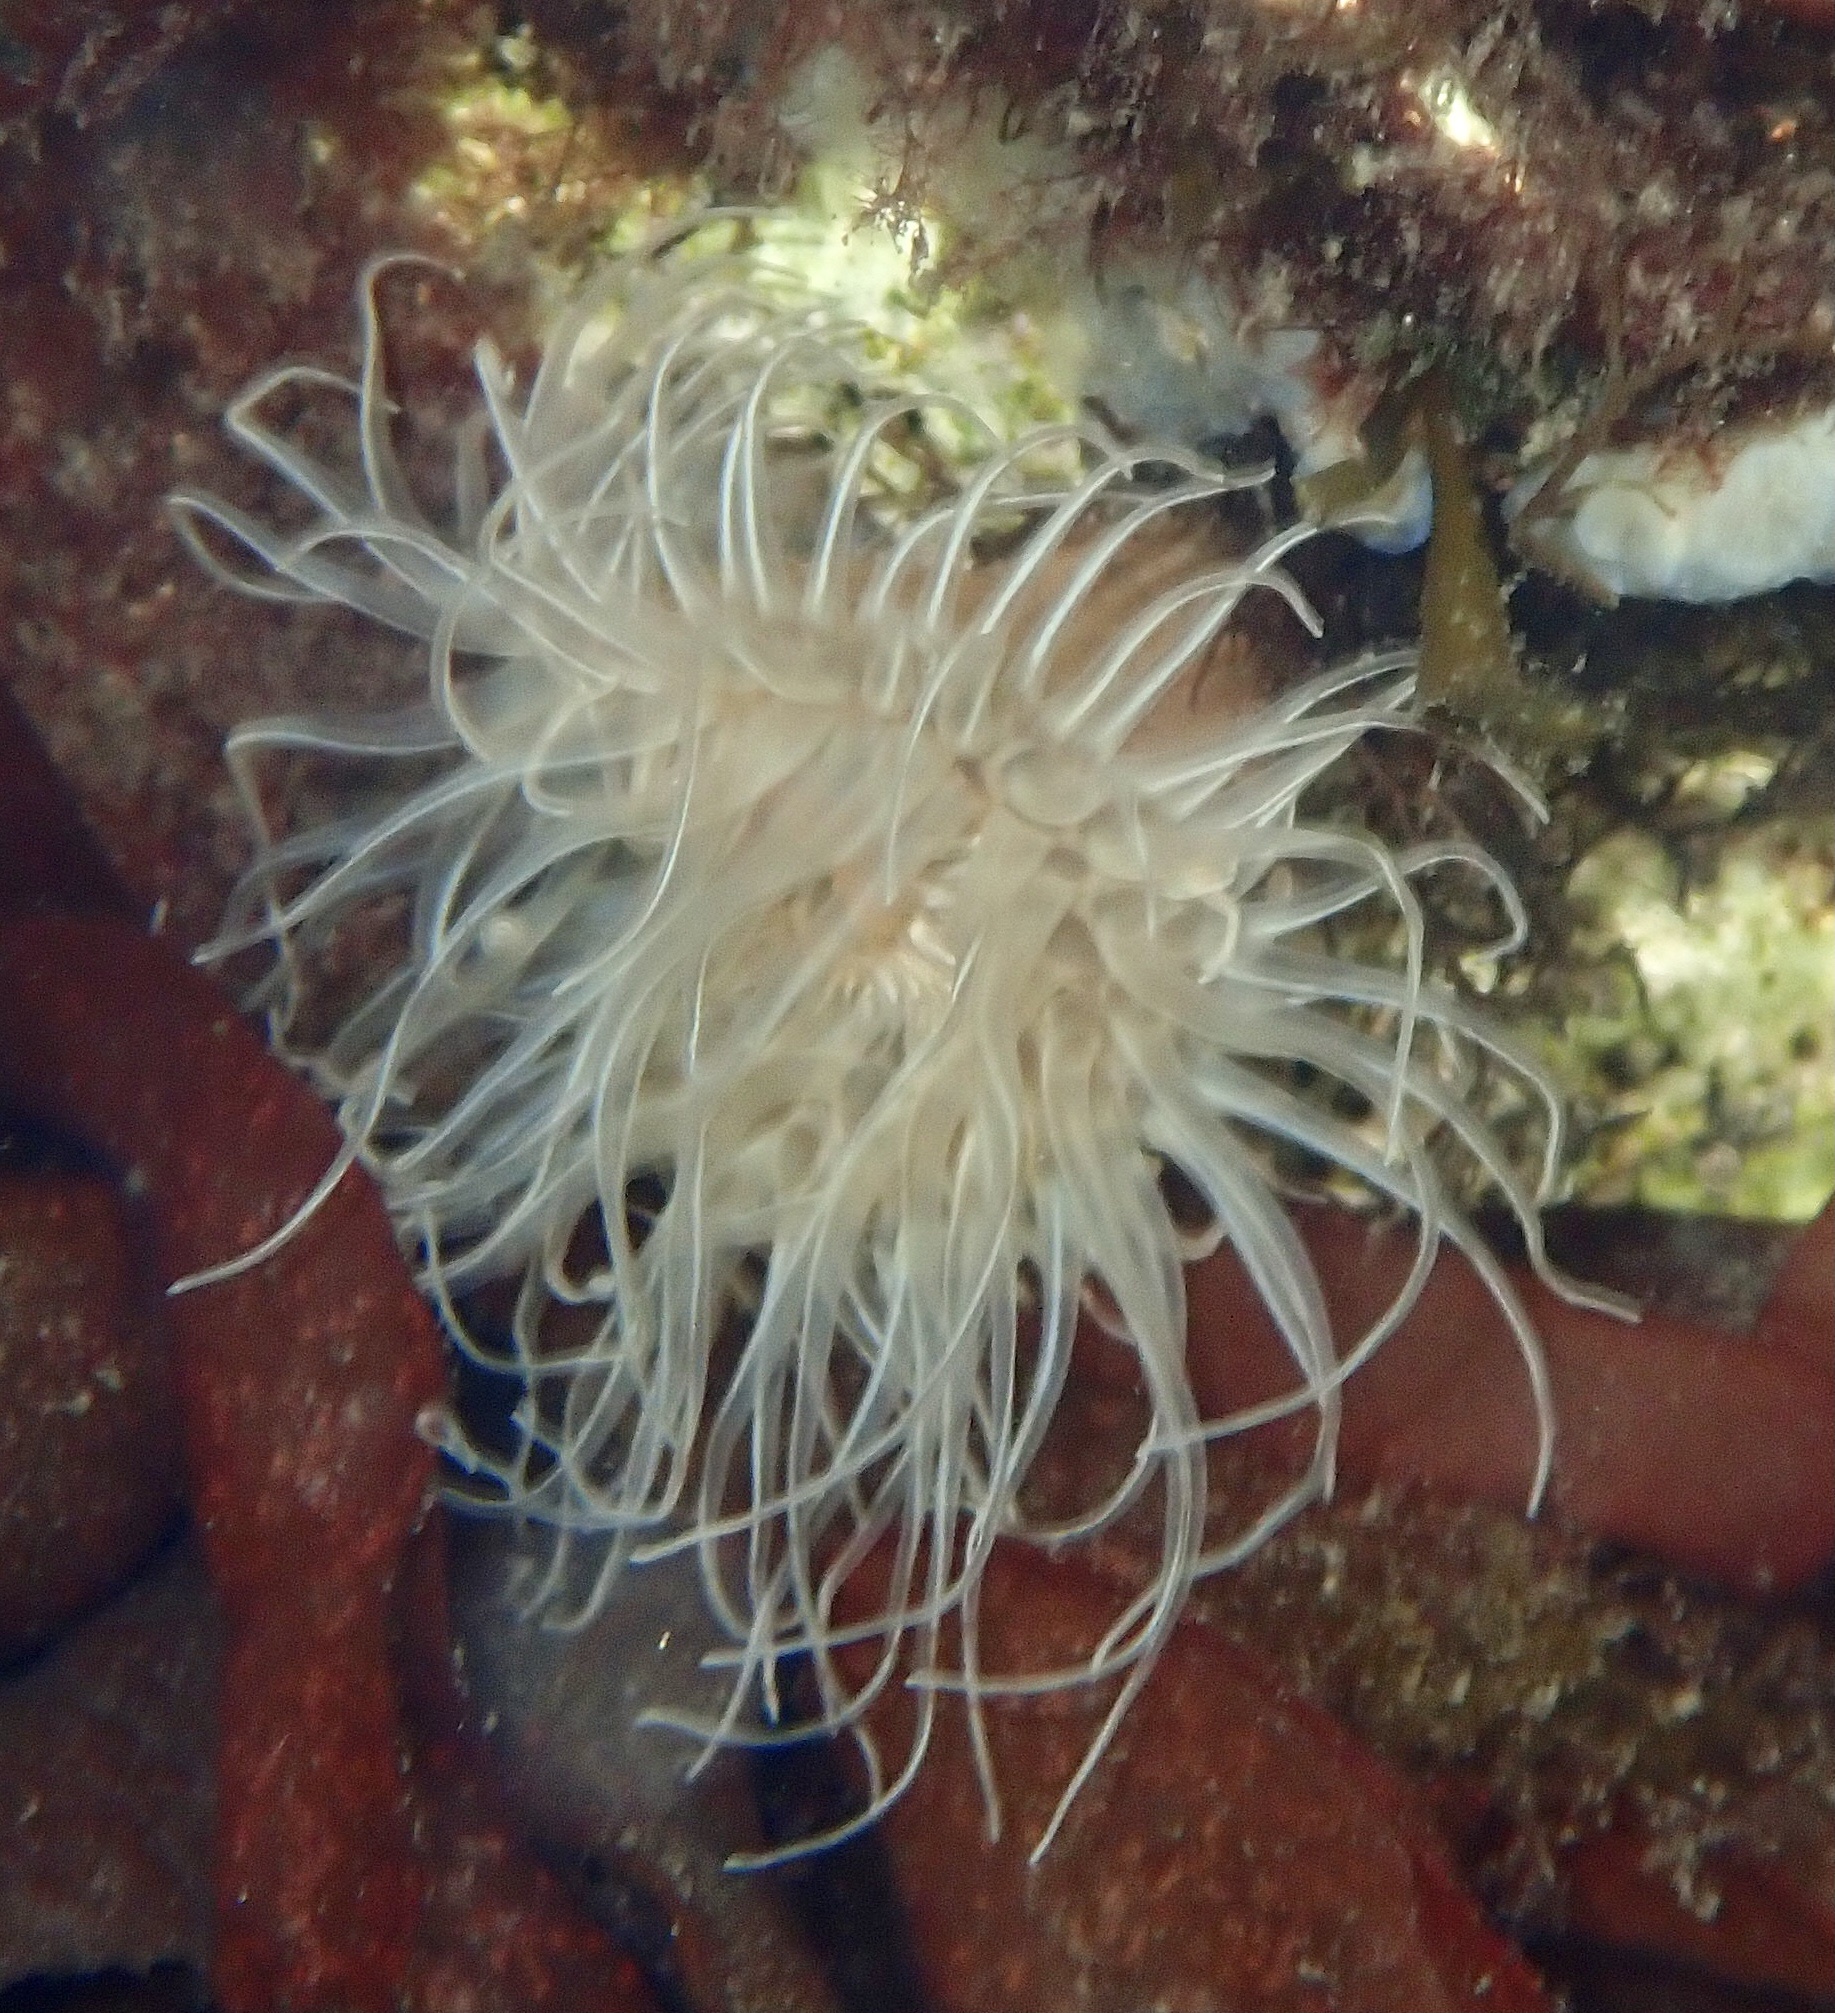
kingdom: Animalia
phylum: Cnidaria
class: Anthozoa
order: Actiniaria
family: Sagartiidae
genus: Sagartia
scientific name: Sagartia undata
